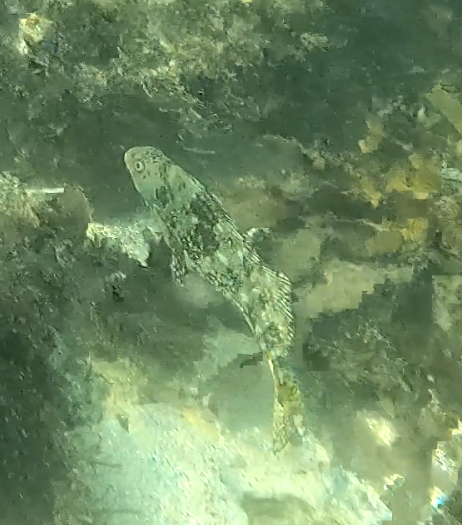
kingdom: Animalia
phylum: Chordata
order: Perciformes
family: Aplodactylidae
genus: Aplodactylus
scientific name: Aplodactylus lophodon
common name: Cockatoo fish
